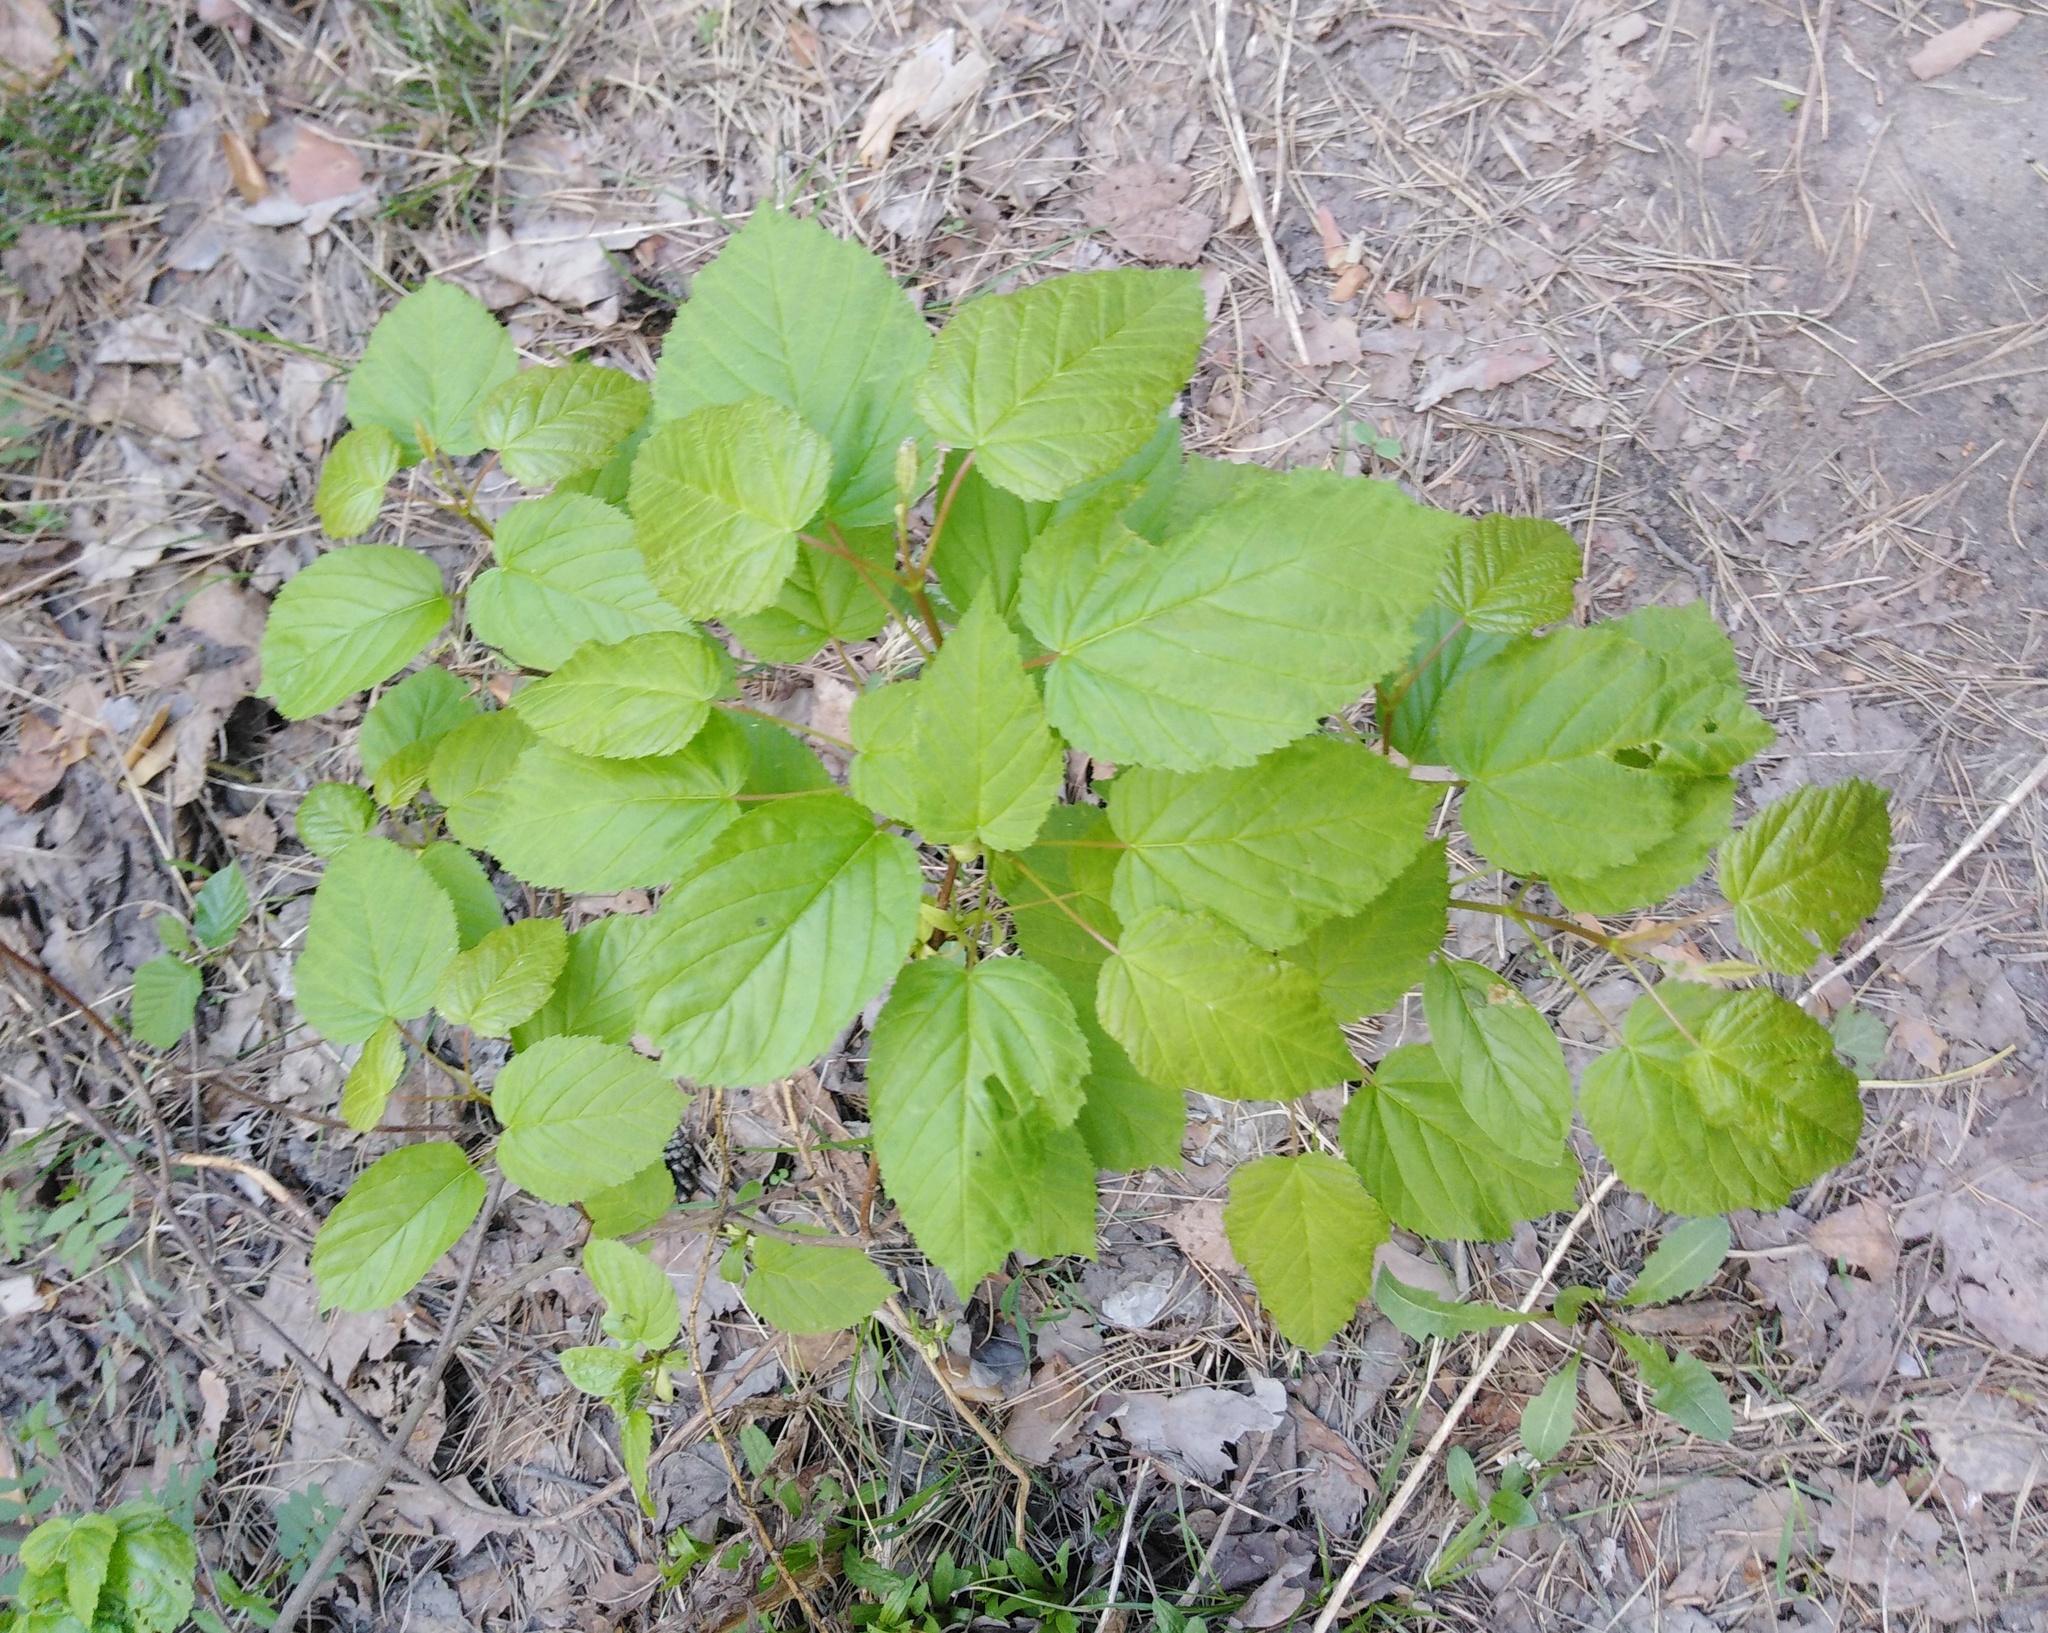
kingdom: Plantae
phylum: Tracheophyta
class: Magnoliopsida
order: Sapindales
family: Sapindaceae
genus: Acer
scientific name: Acer tataricum
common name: Tartar maple
